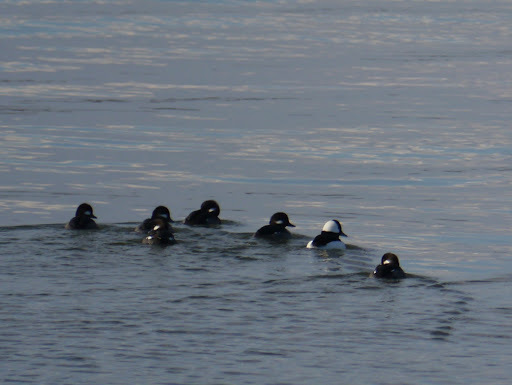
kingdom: Animalia
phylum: Chordata
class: Aves
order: Anseriformes
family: Anatidae
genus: Bucephala
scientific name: Bucephala albeola
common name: Bufflehead
